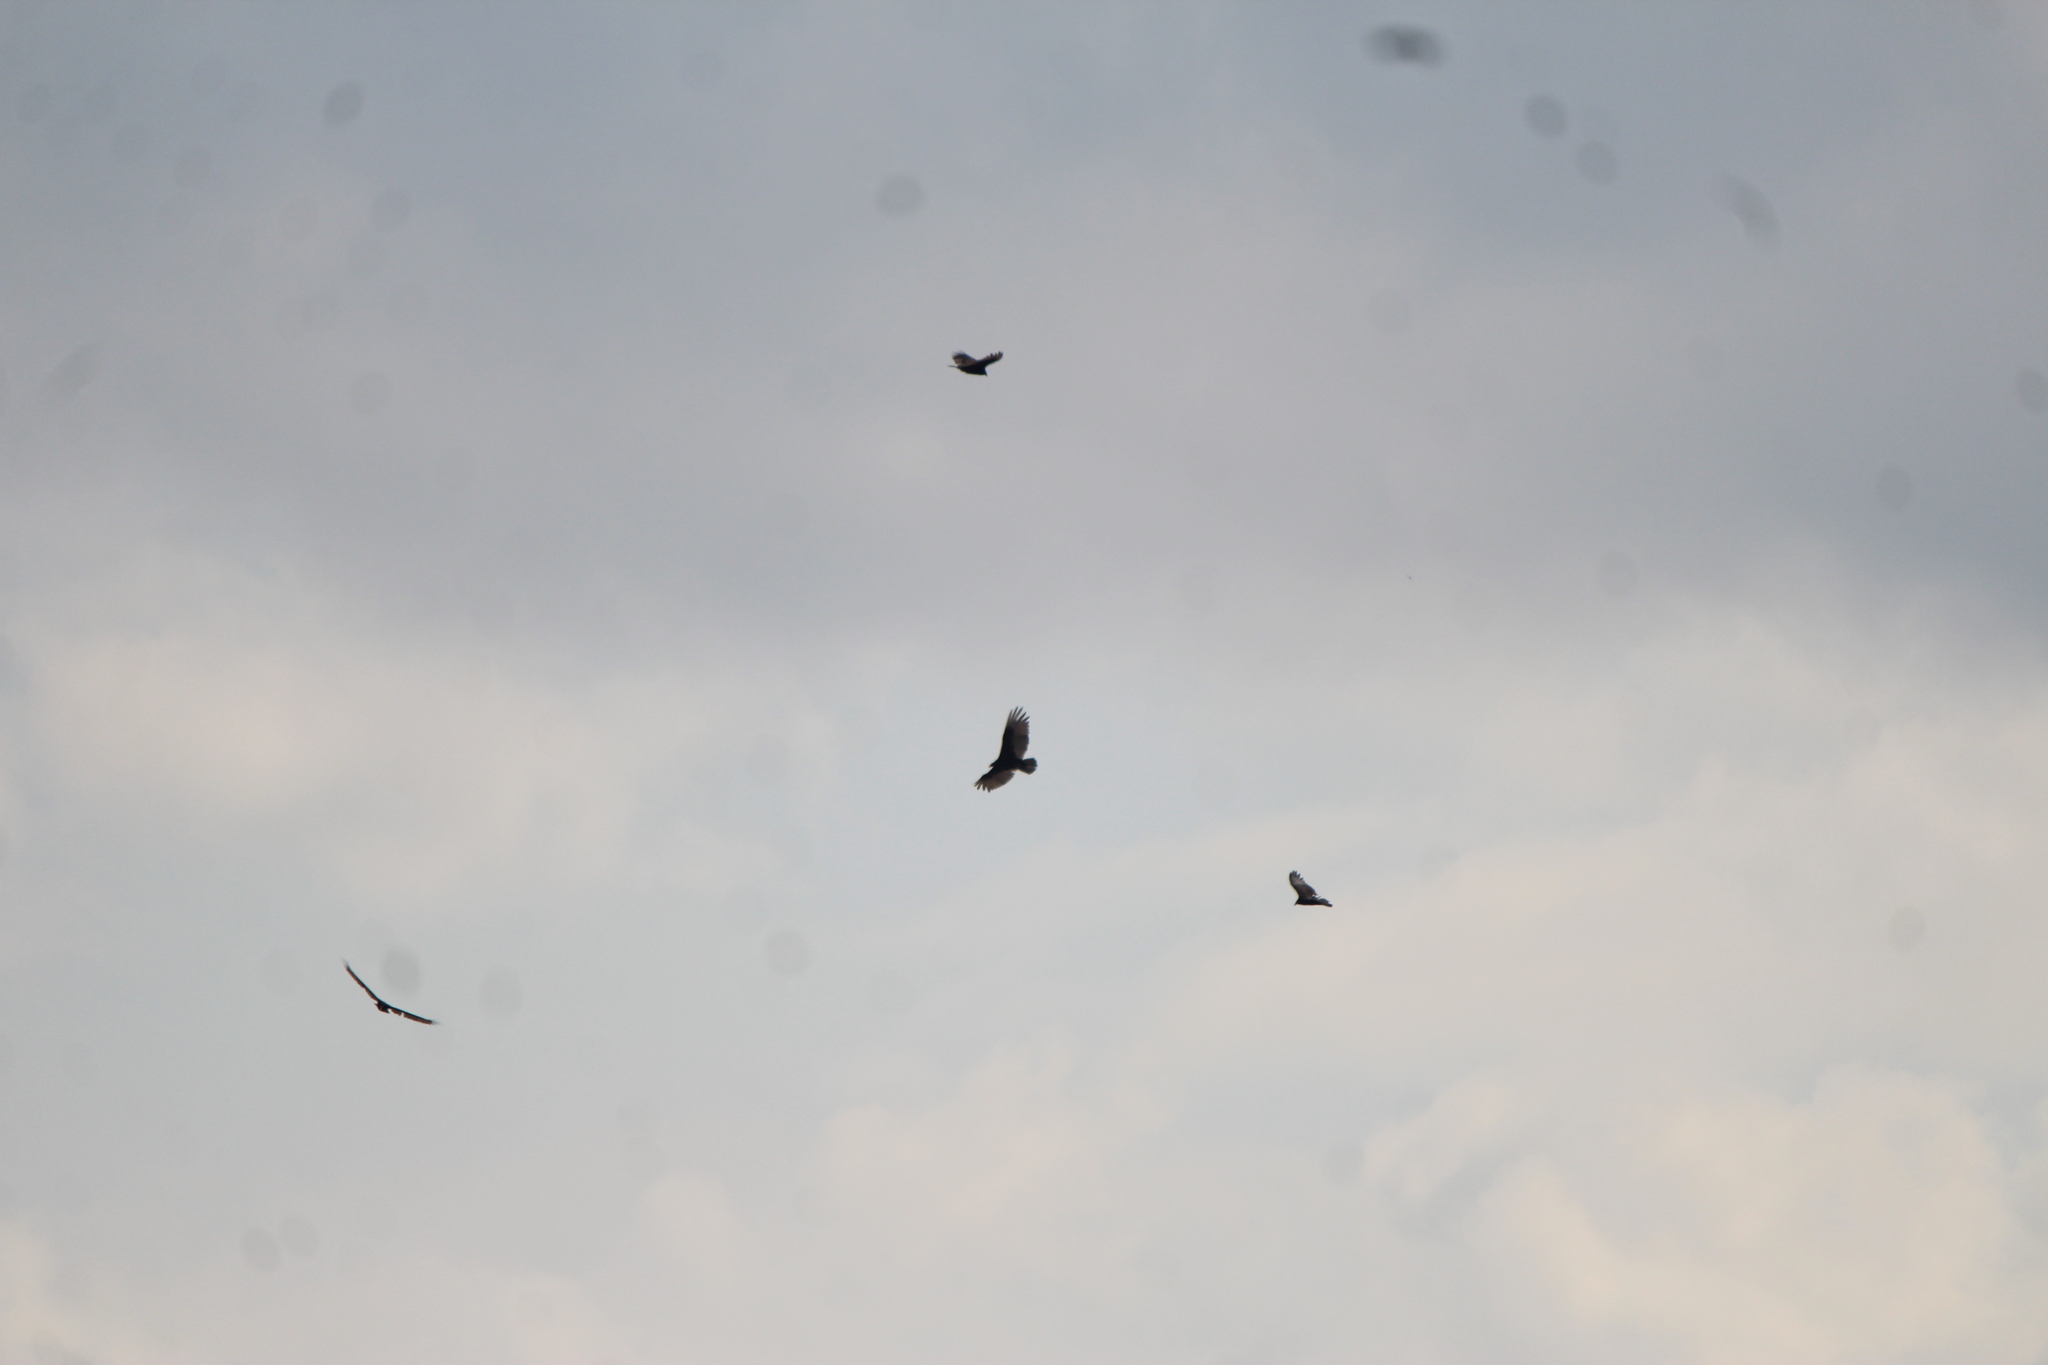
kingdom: Animalia
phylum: Chordata
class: Aves
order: Accipitriformes
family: Cathartidae
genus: Cathartes
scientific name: Cathartes aura
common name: Turkey vulture
